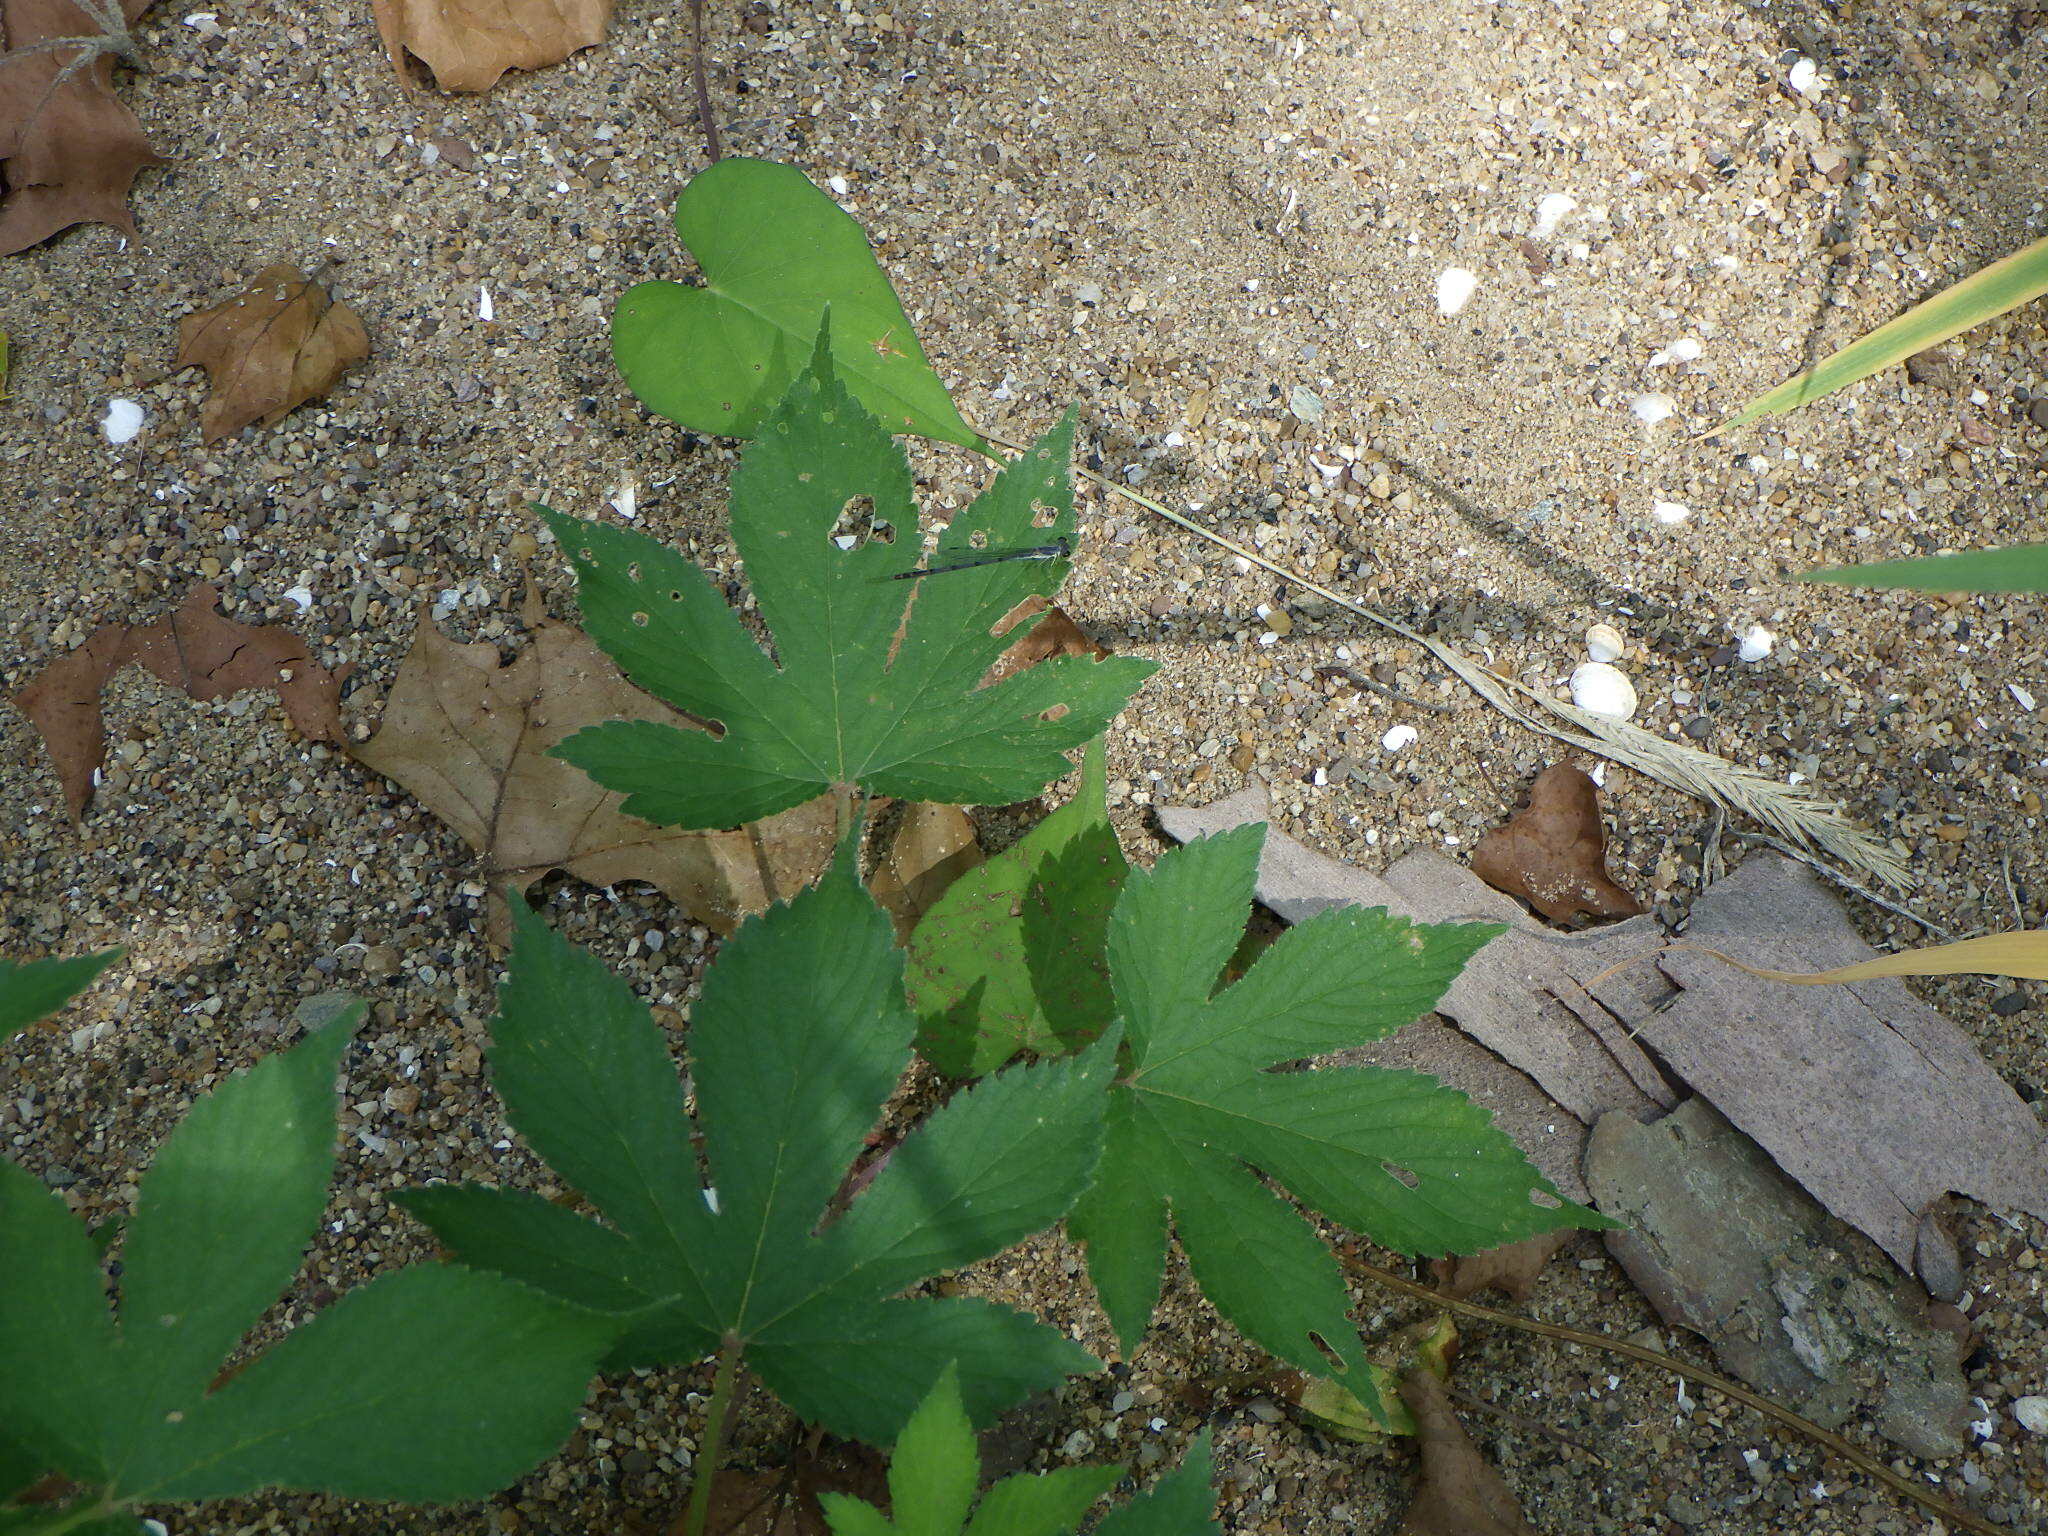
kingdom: Plantae
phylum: Tracheophyta
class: Magnoliopsida
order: Rosales
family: Cannabaceae
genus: Humulus
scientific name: Humulus scandens
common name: Japanese hop
